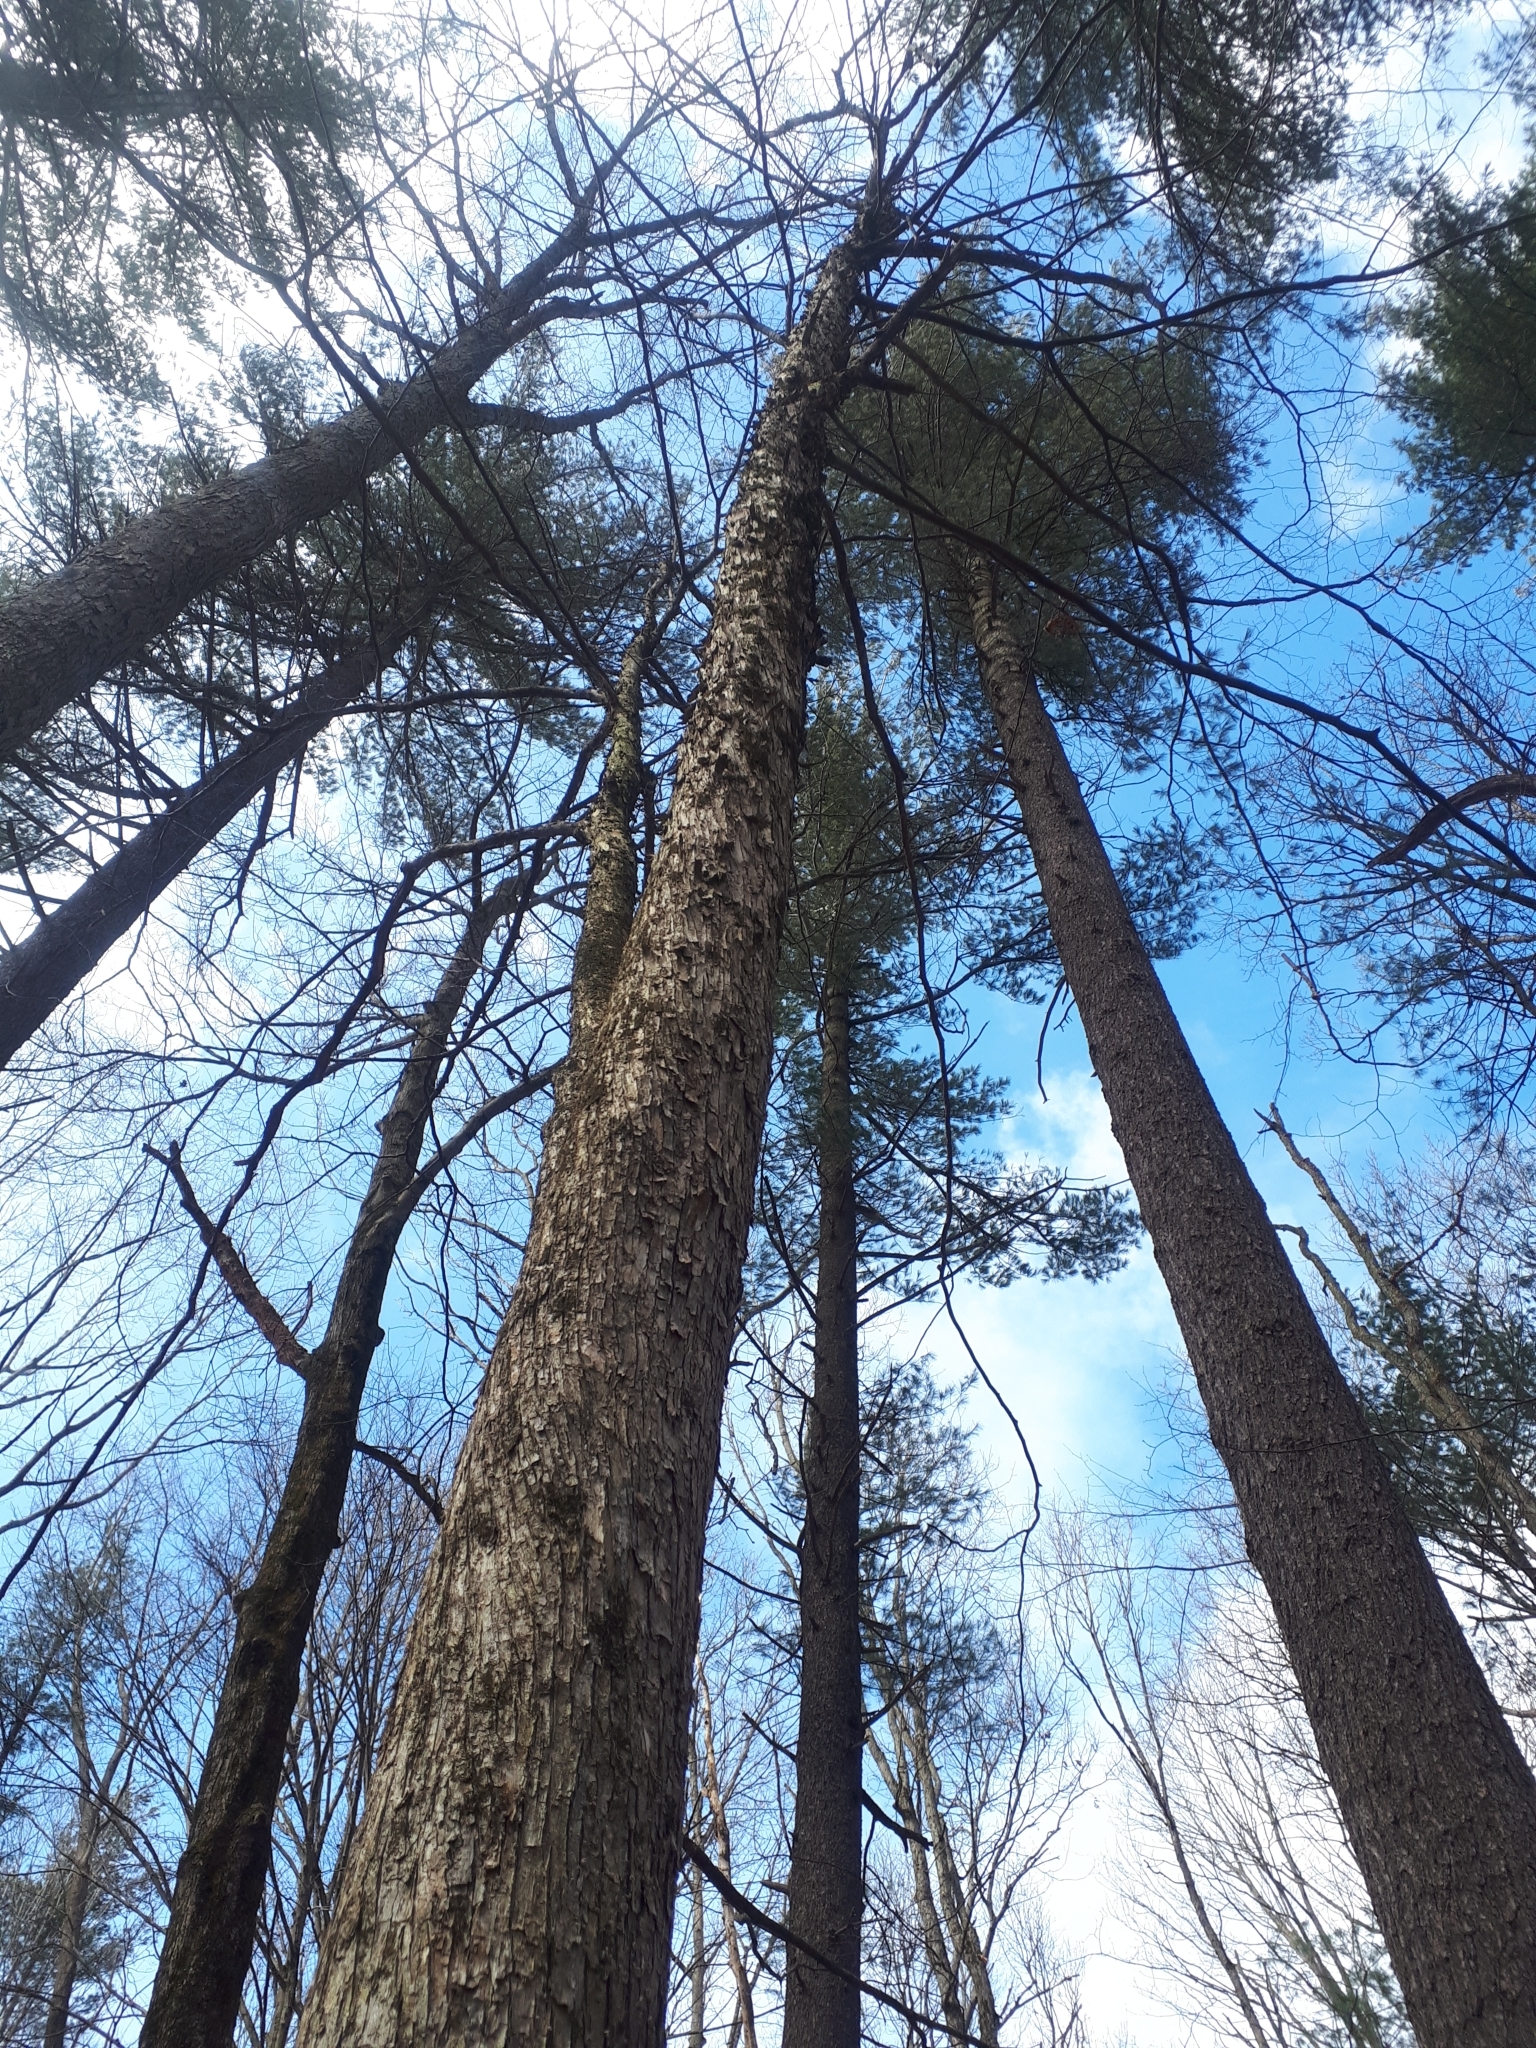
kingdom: Plantae
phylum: Tracheophyta
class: Magnoliopsida
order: Fagales
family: Betulaceae
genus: Ostrya
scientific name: Ostrya virginiana
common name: Ironwood
